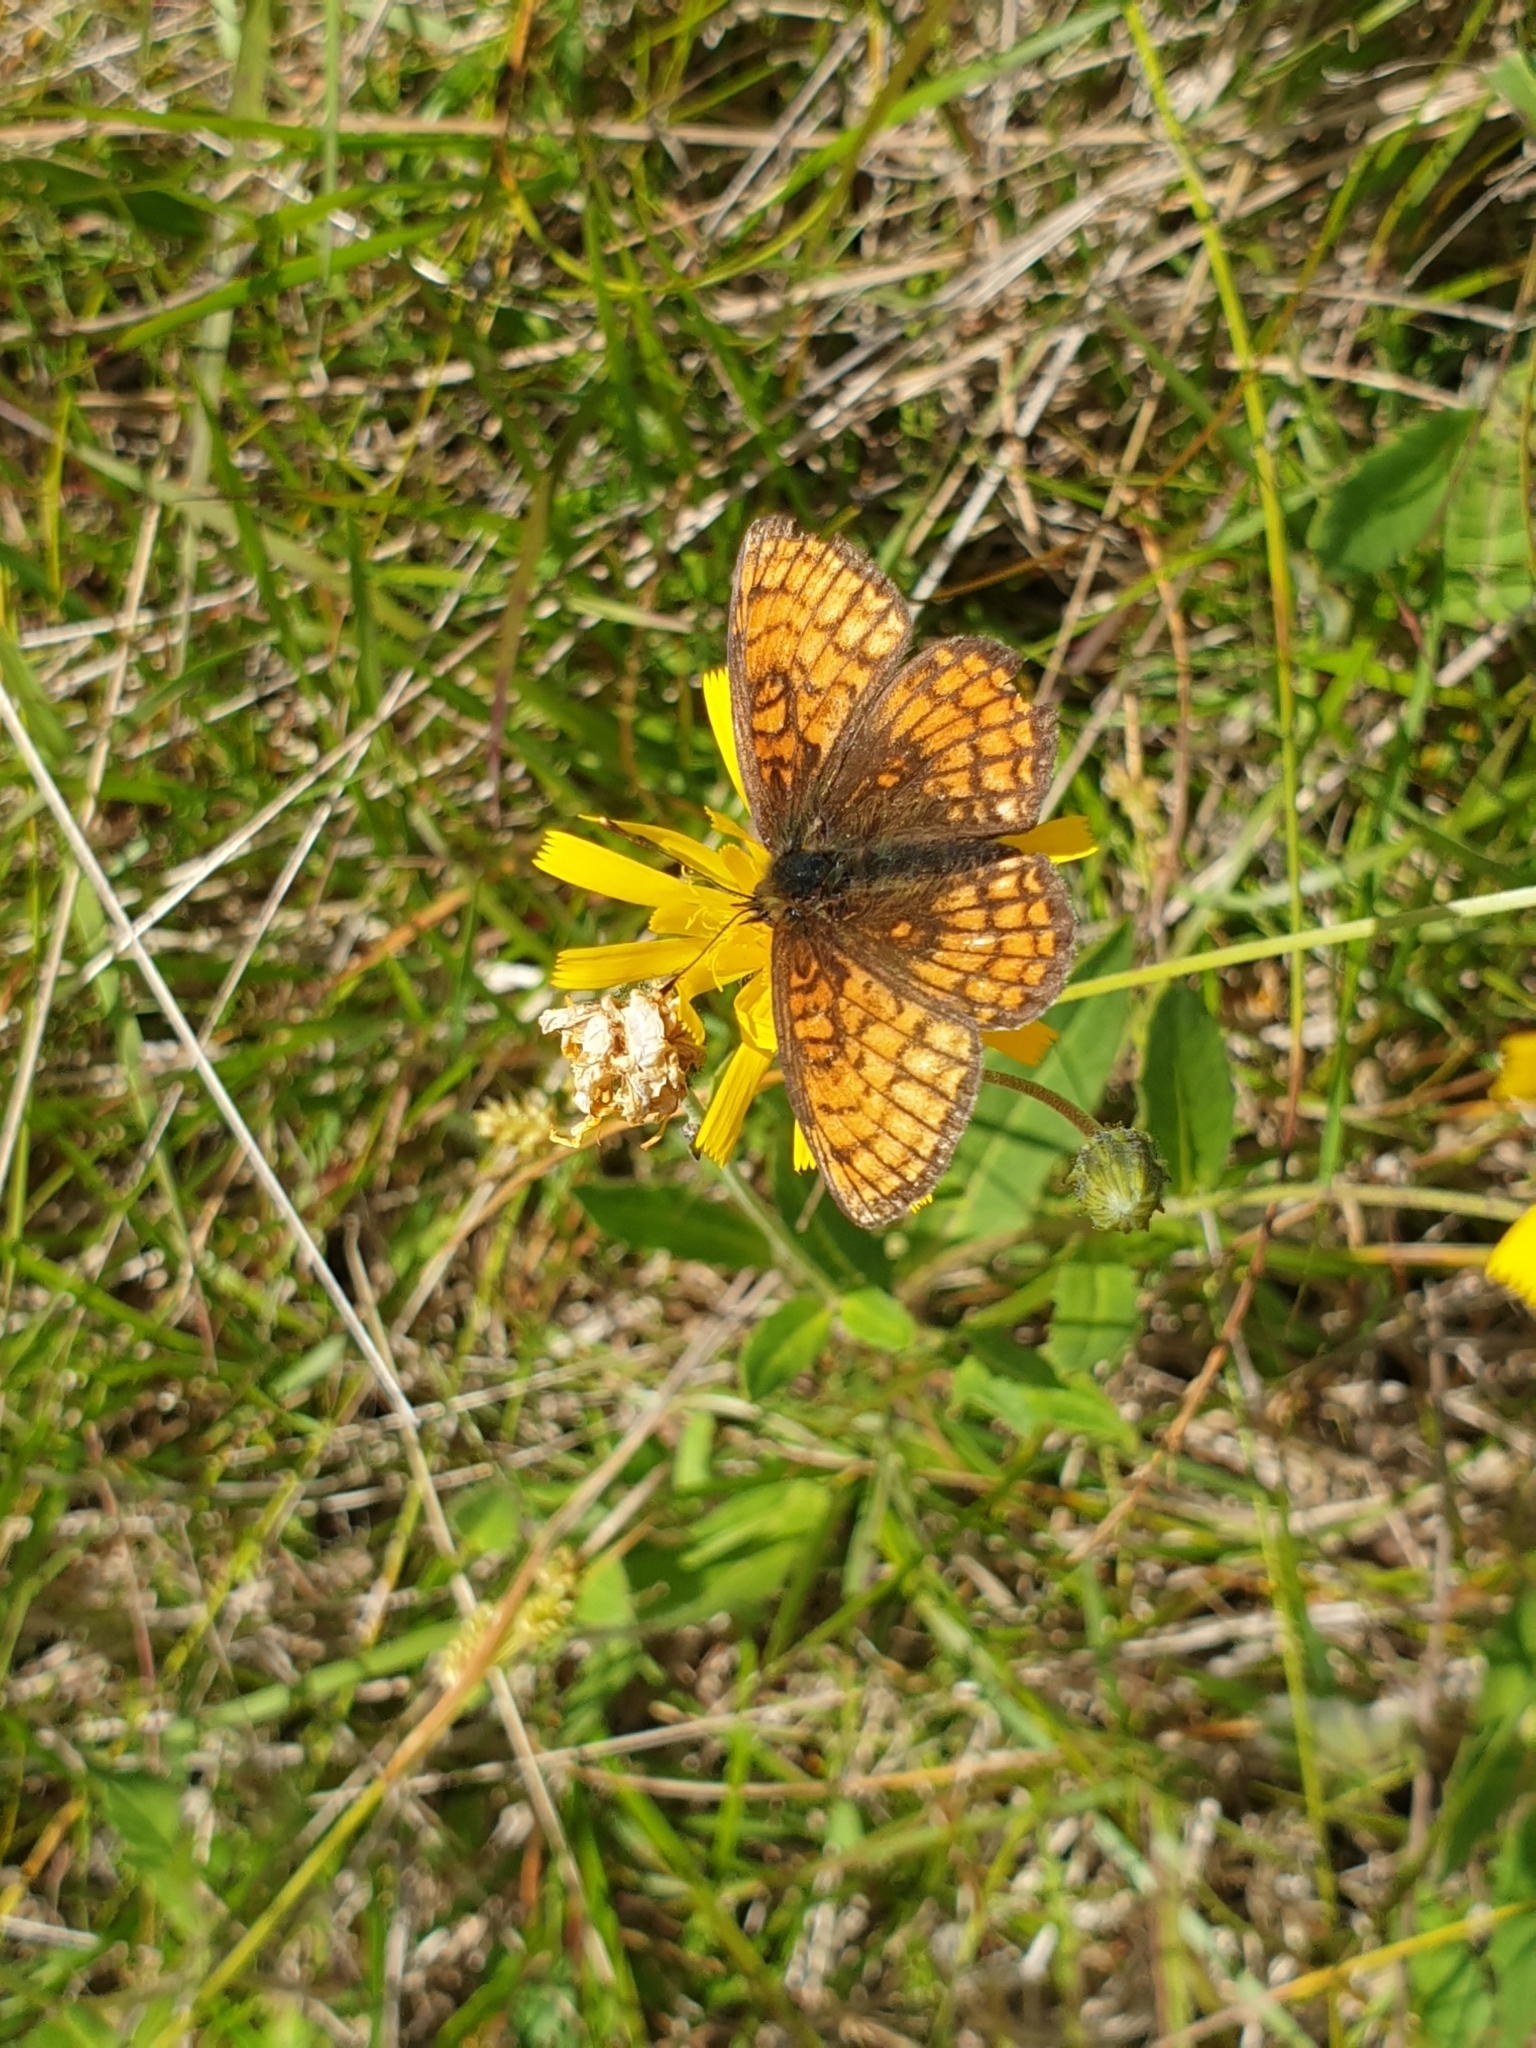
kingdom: Animalia
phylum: Arthropoda
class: Insecta
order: Lepidoptera
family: Nymphalidae
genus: Melitaea
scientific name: Melitaea athalia
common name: Heath fritillary
